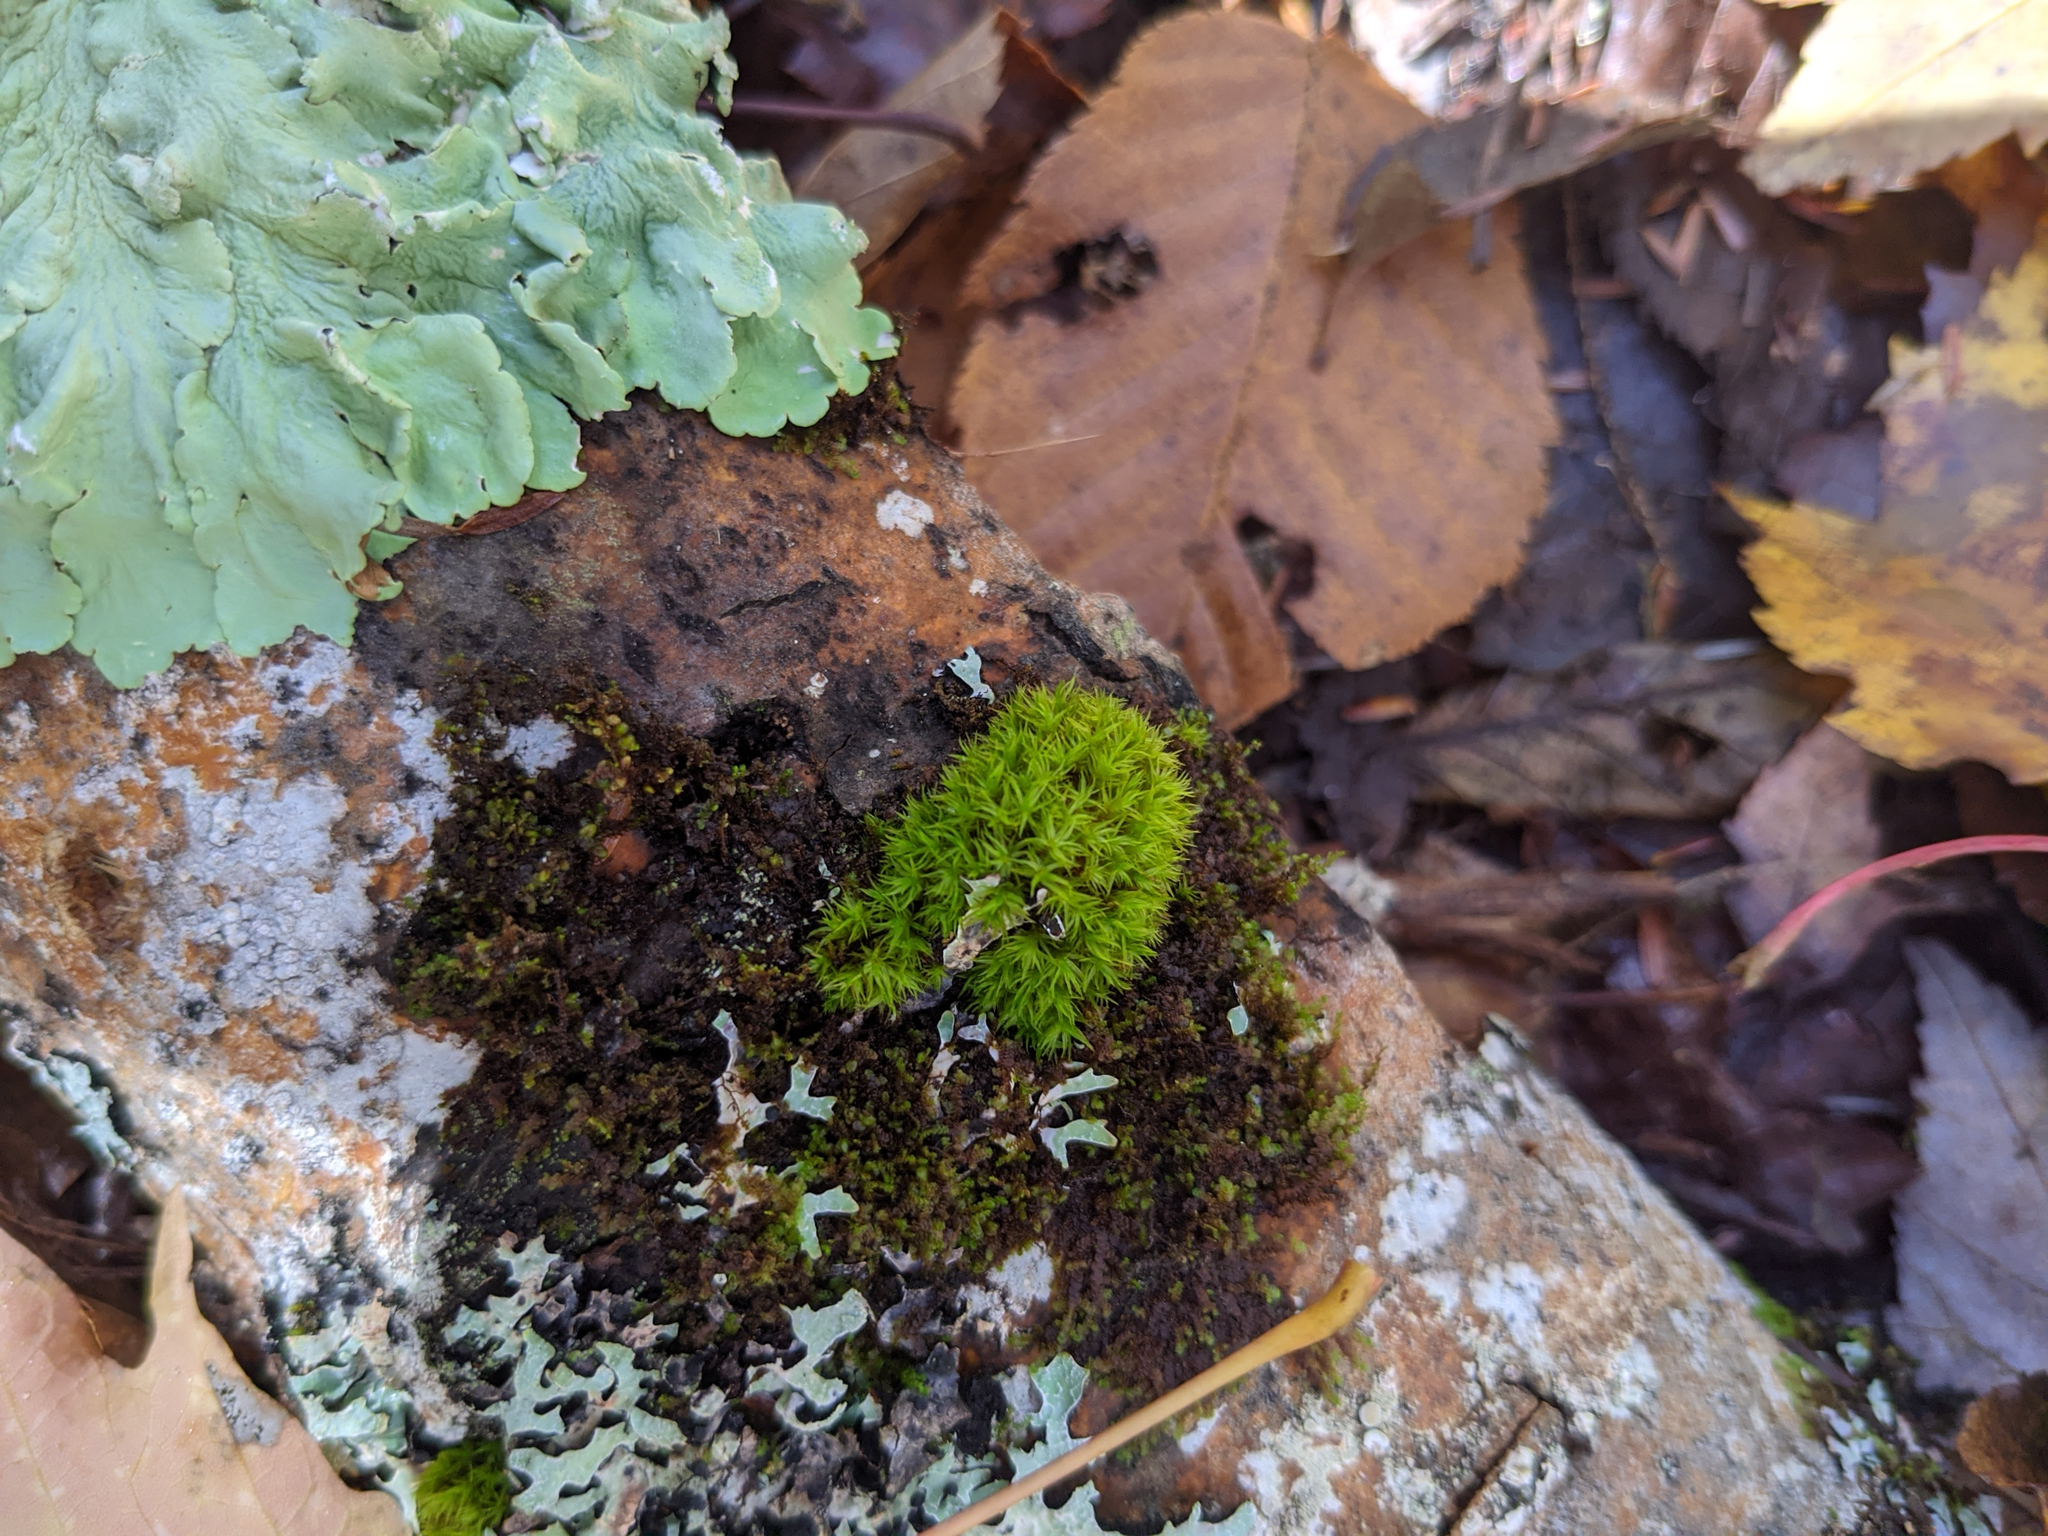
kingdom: Plantae
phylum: Bryophyta
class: Bryopsida
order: Orthotrichales
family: Orthotrichaceae
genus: Ulota
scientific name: Ulota crispa
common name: Crisped pincushion moss
